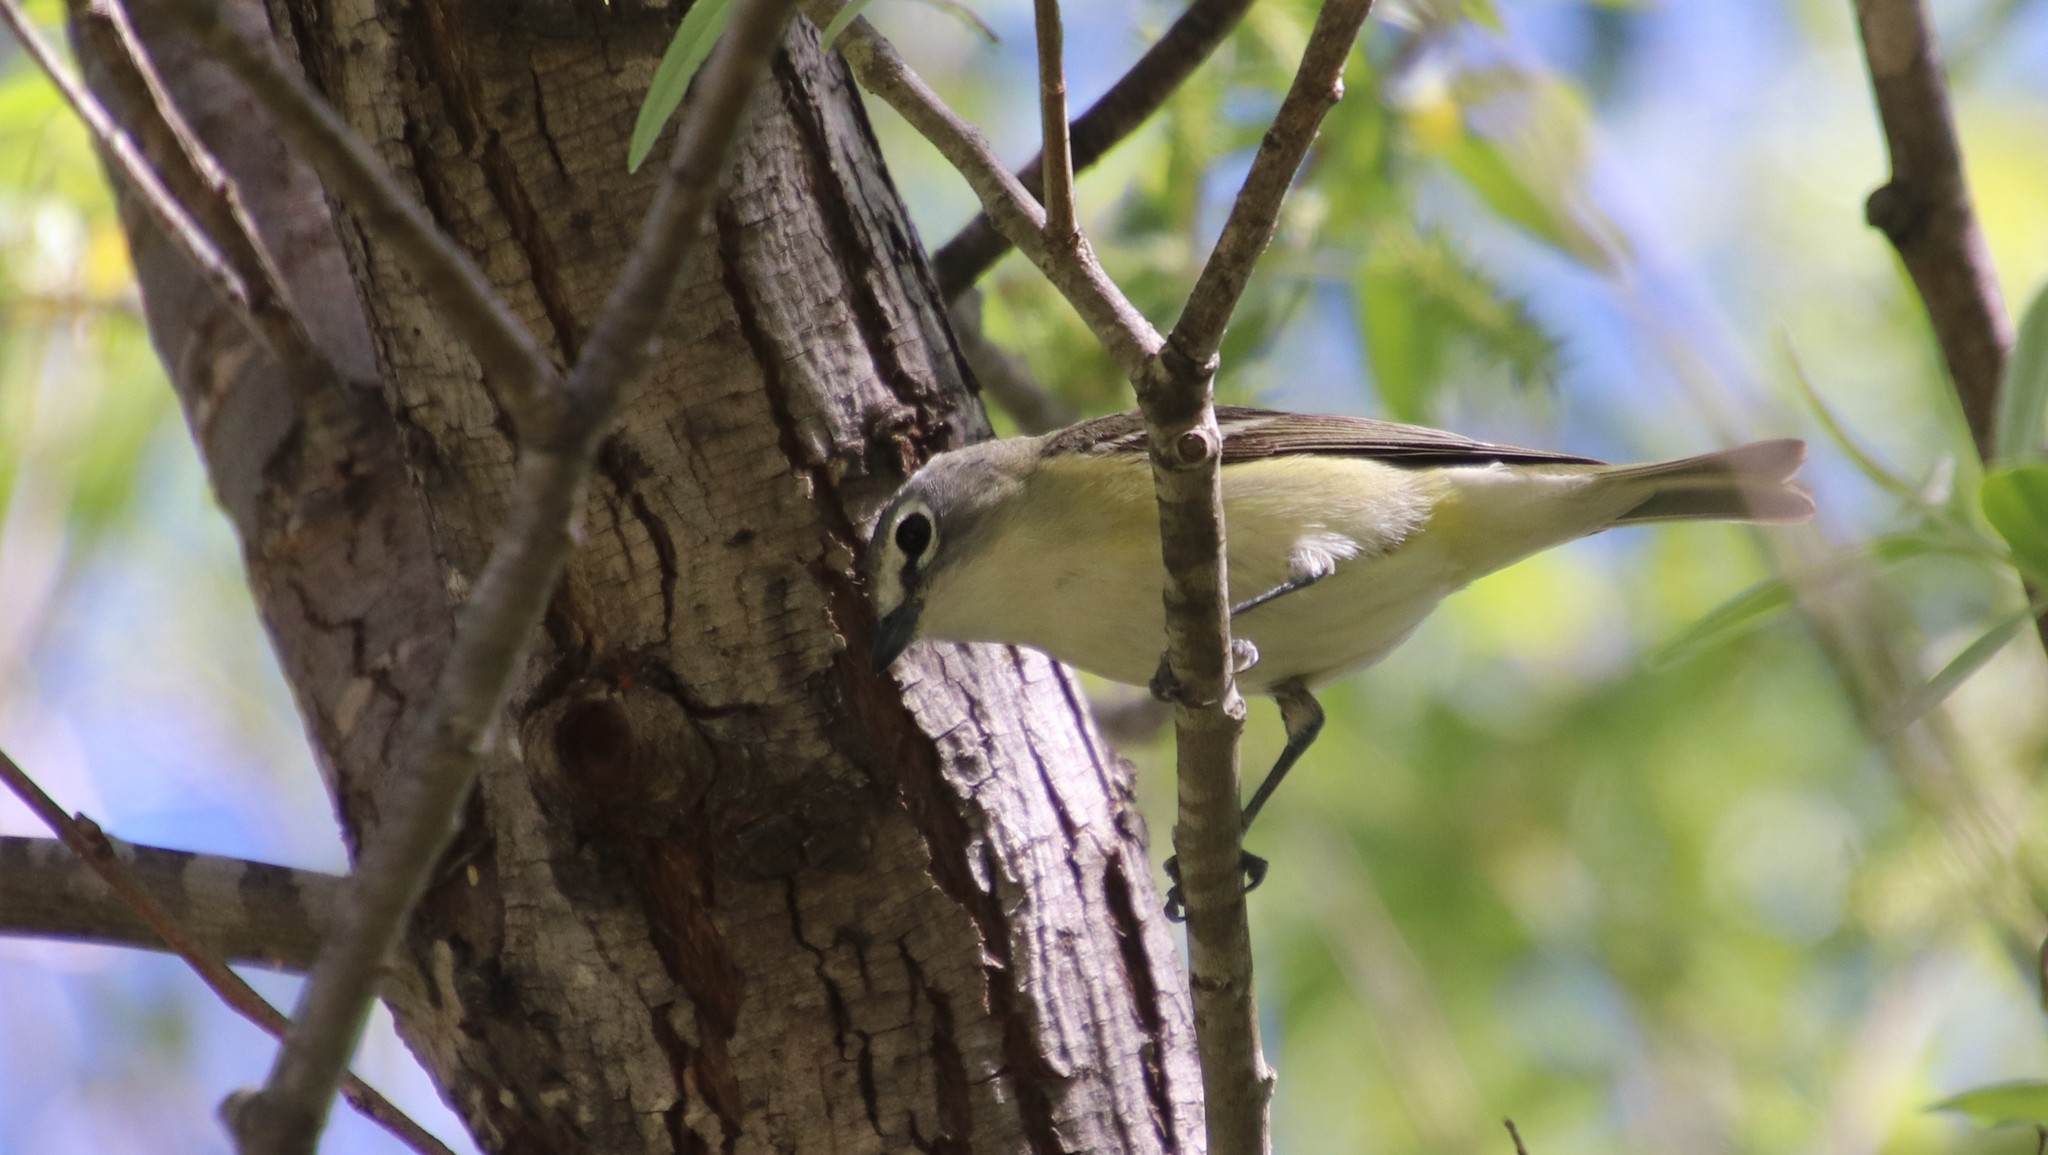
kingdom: Animalia
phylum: Chordata
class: Aves
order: Passeriformes
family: Vireonidae
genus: Vireo
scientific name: Vireo cassinii
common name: Cassin's vireo
